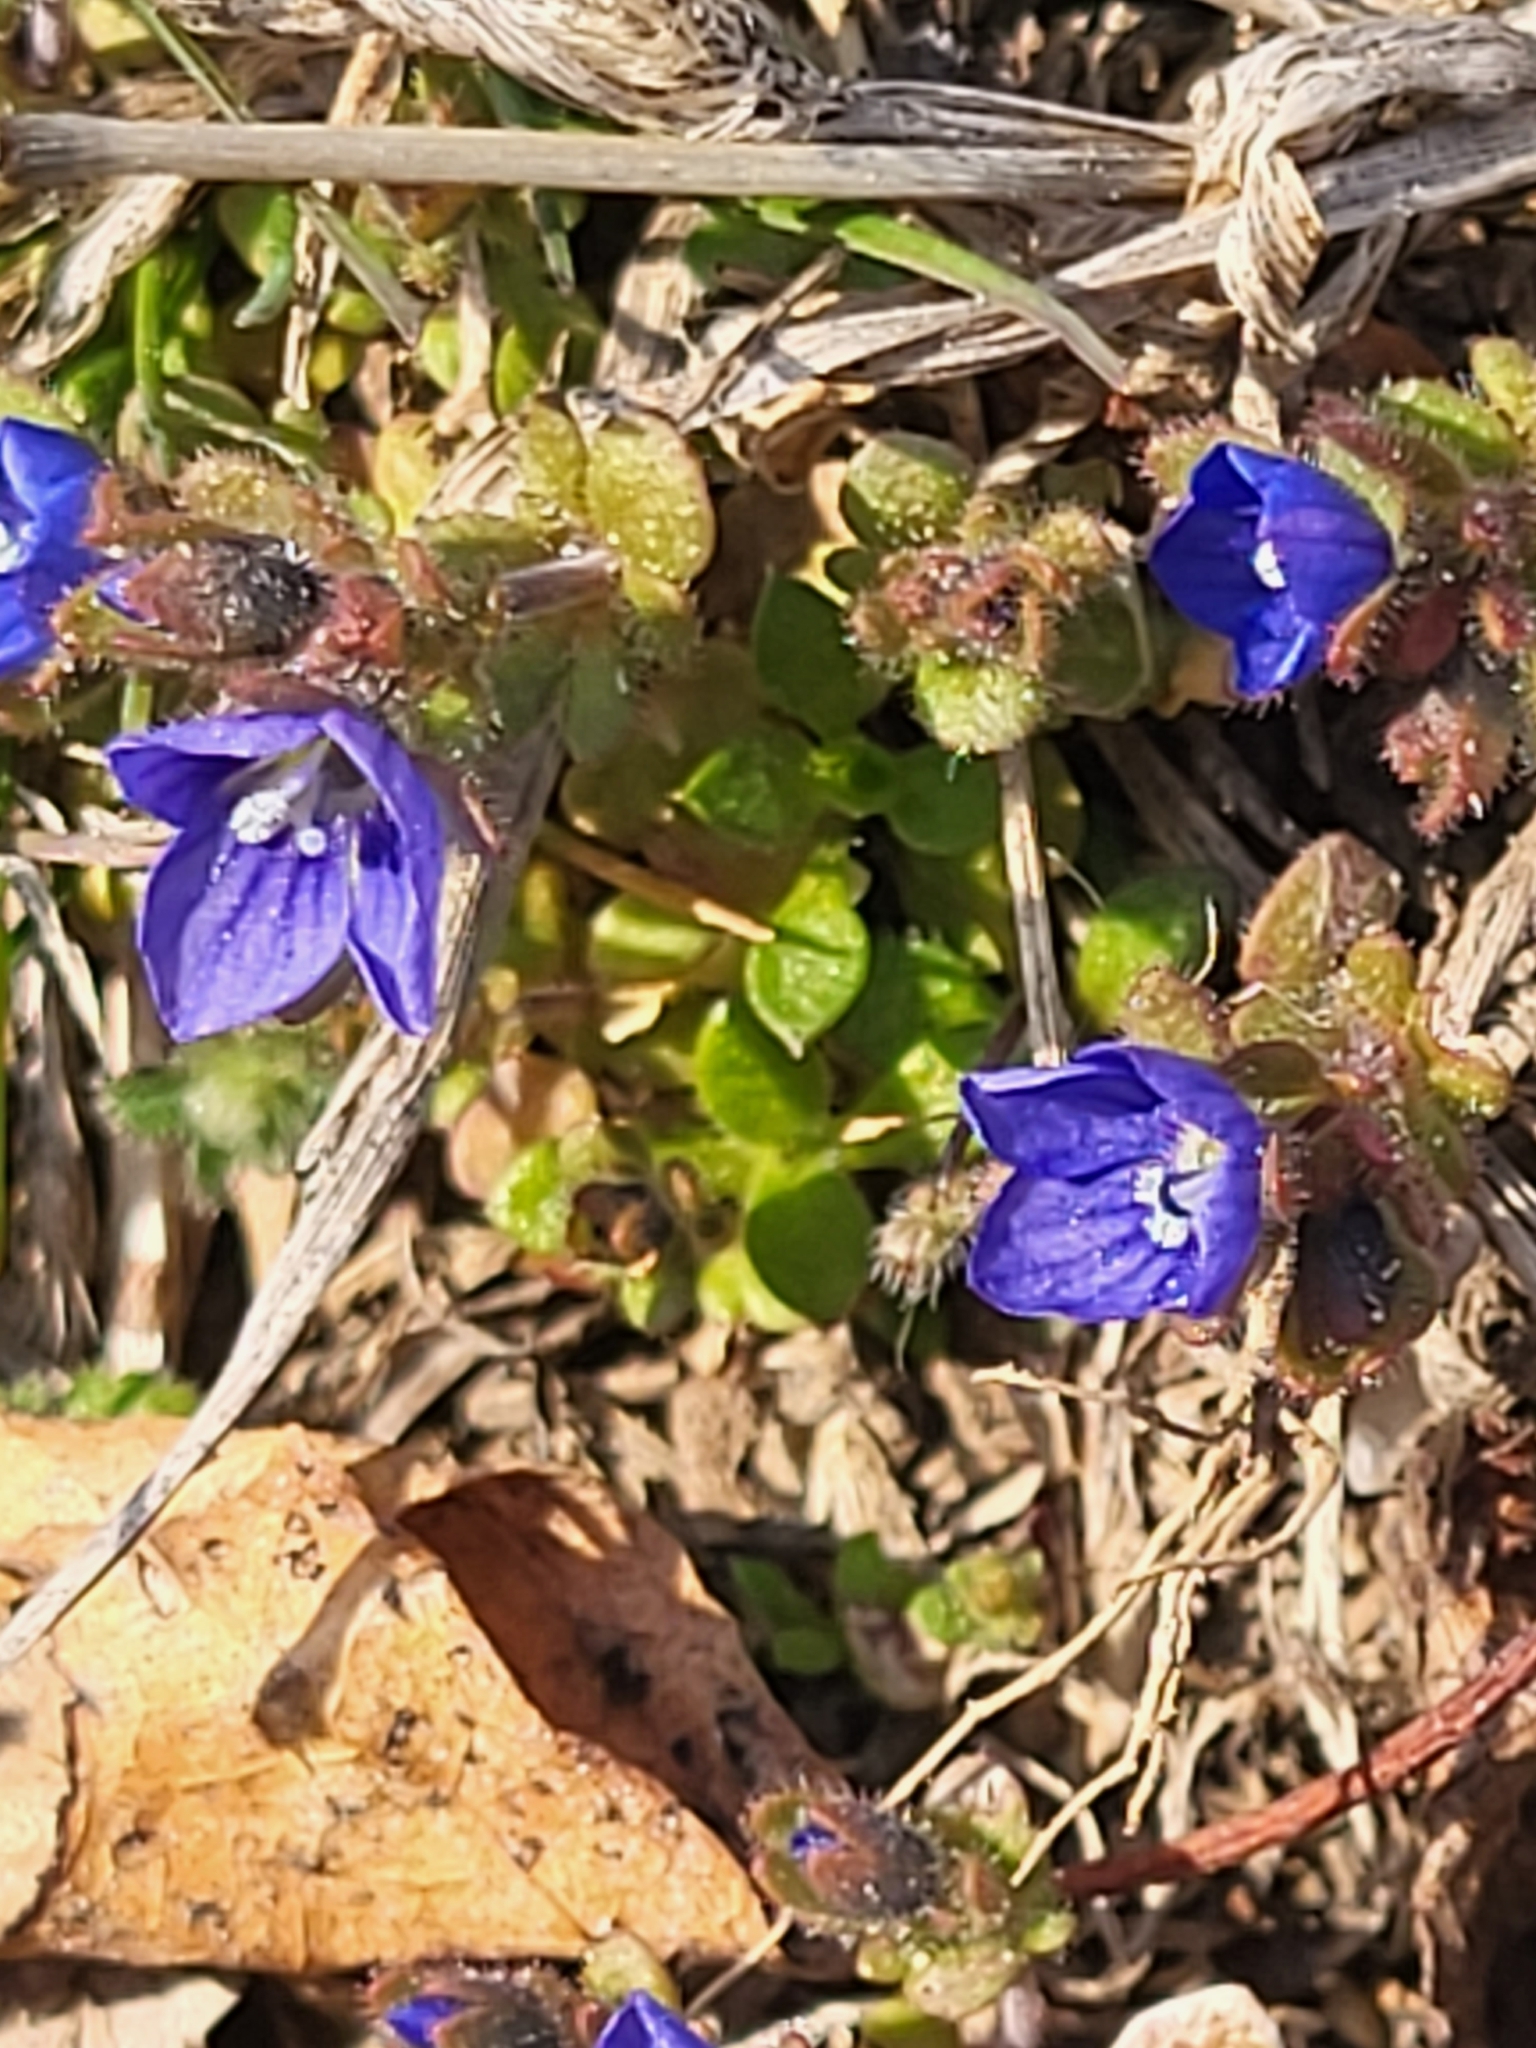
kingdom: Plantae
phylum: Tracheophyta
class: Magnoliopsida
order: Lamiales
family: Plantaginaceae
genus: Veronica
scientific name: Veronica triphyllos
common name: Fingered speedwell
